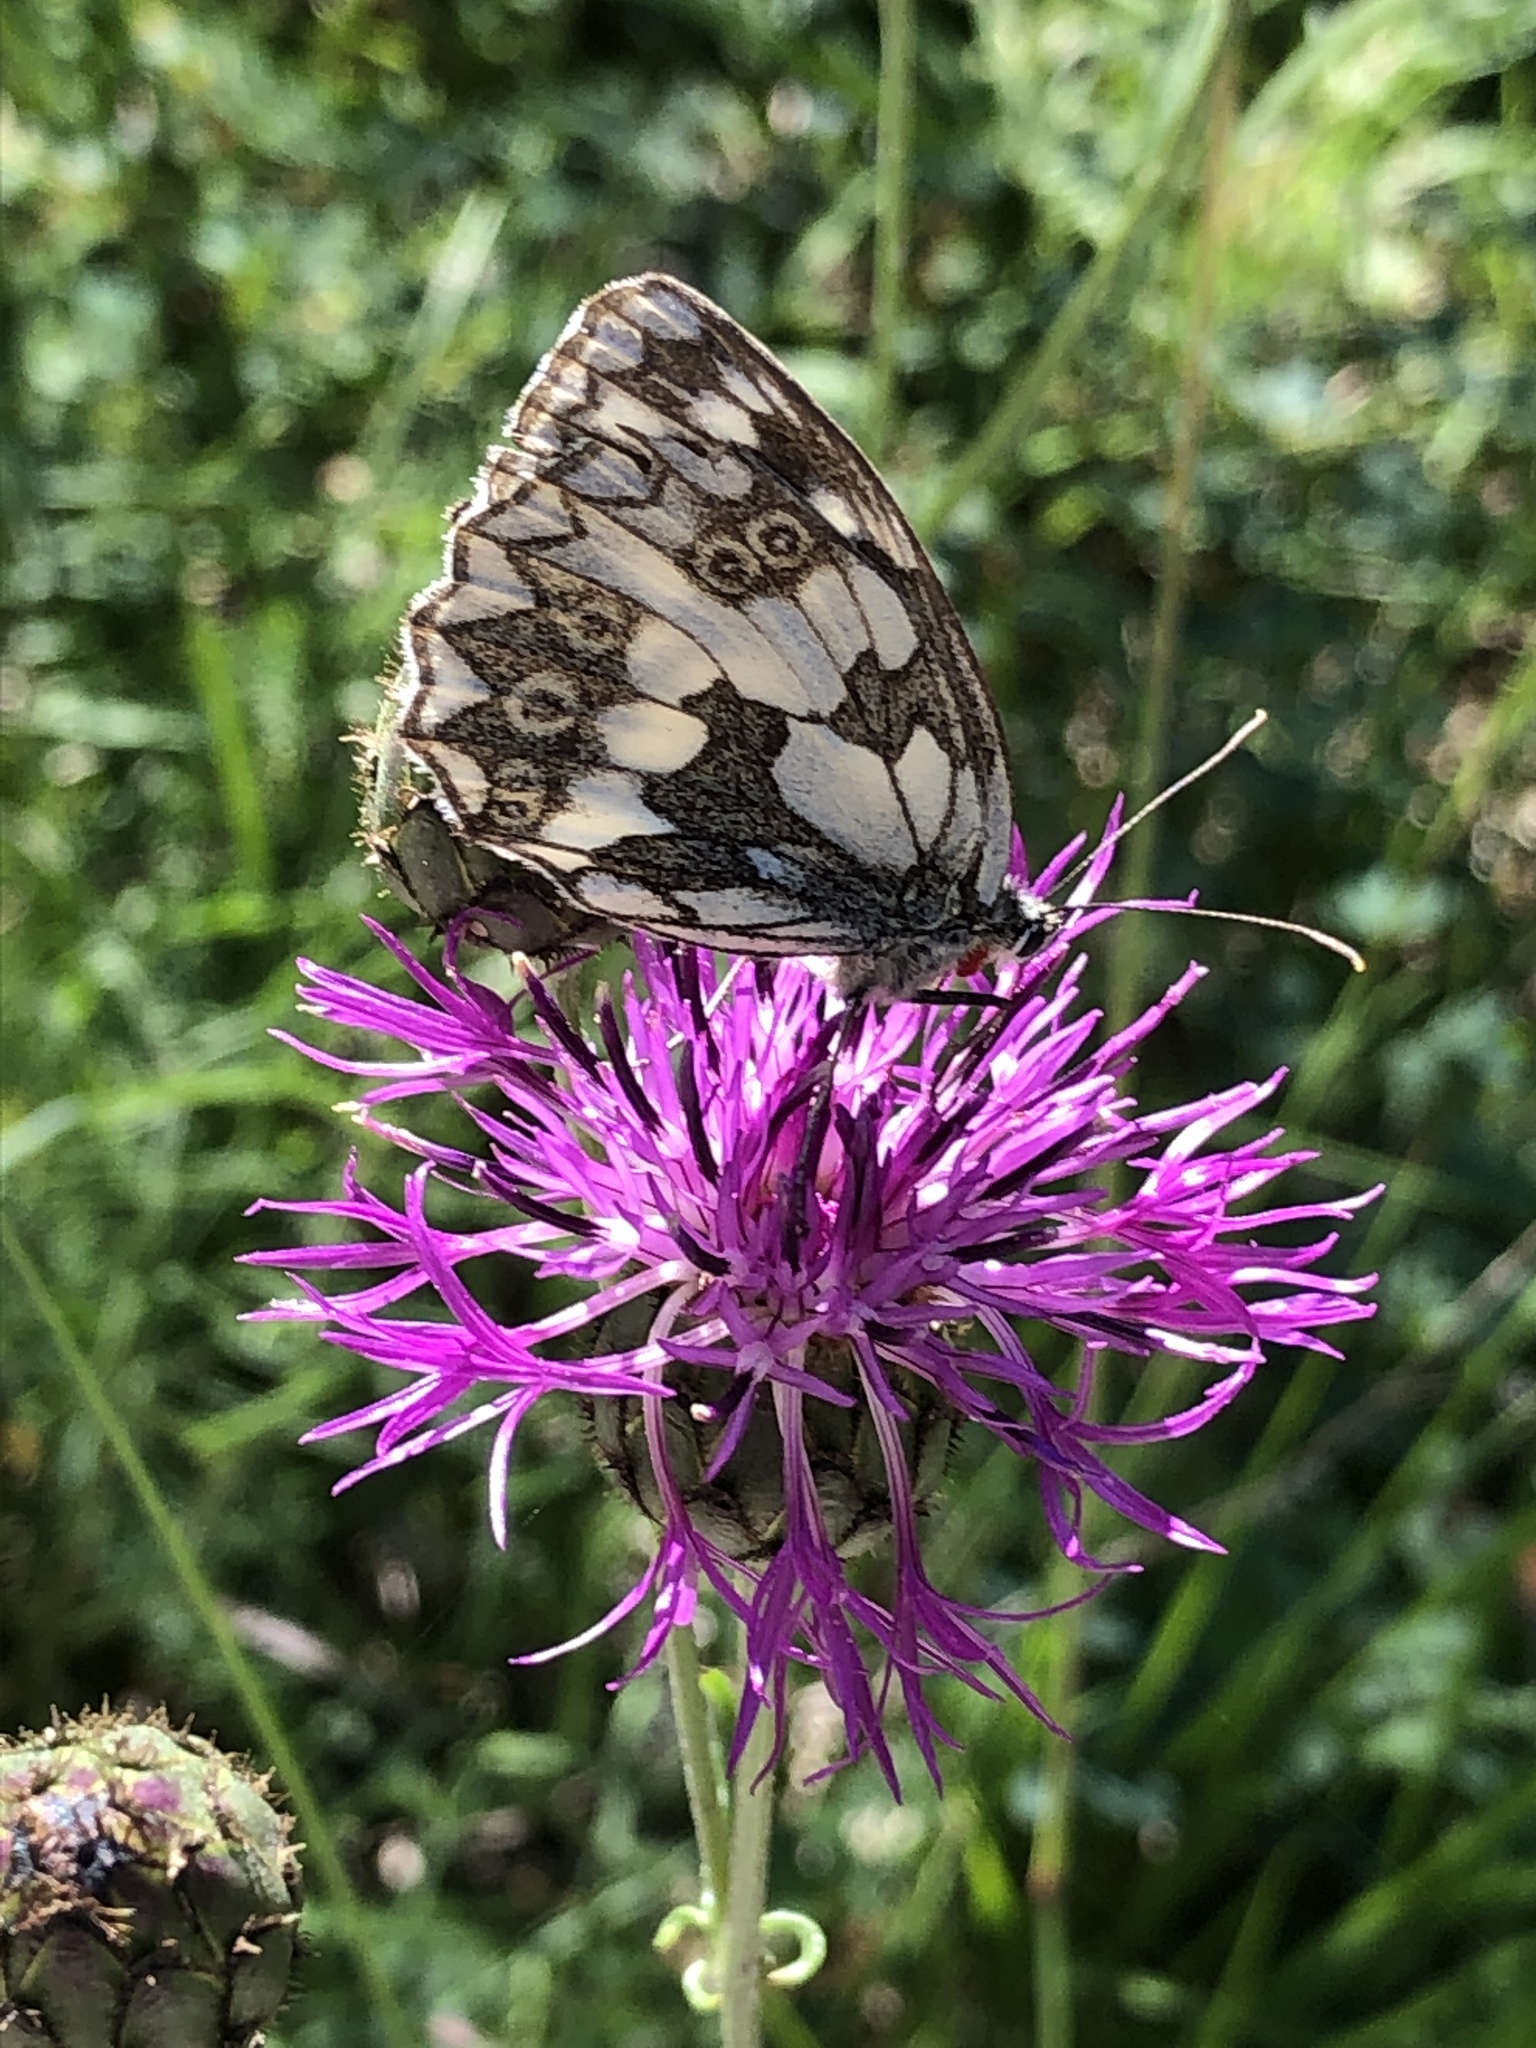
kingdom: Animalia
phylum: Arthropoda
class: Insecta
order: Lepidoptera
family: Nymphalidae
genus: Melanargia
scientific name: Melanargia galathea
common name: Marbled white
